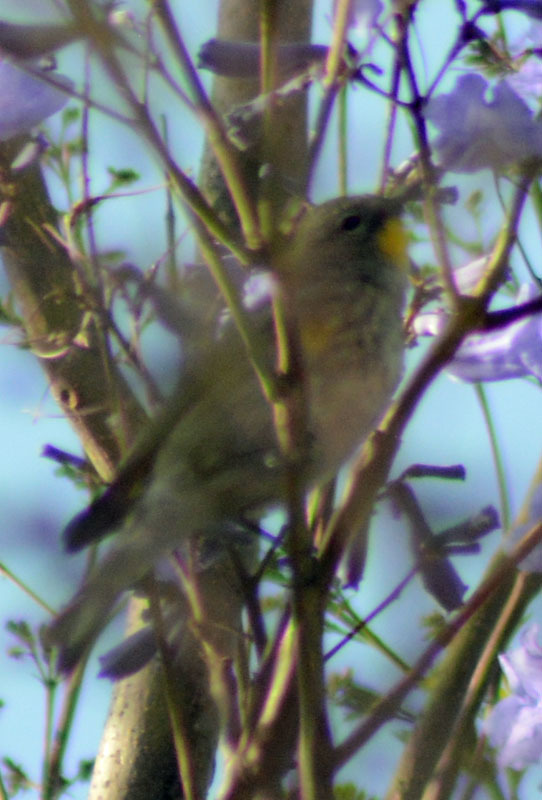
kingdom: Animalia
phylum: Chordata
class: Aves
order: Passeriformes
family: Parulidae
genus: Setophaga
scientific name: Setophaga auduboni
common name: Audubon's warbler
